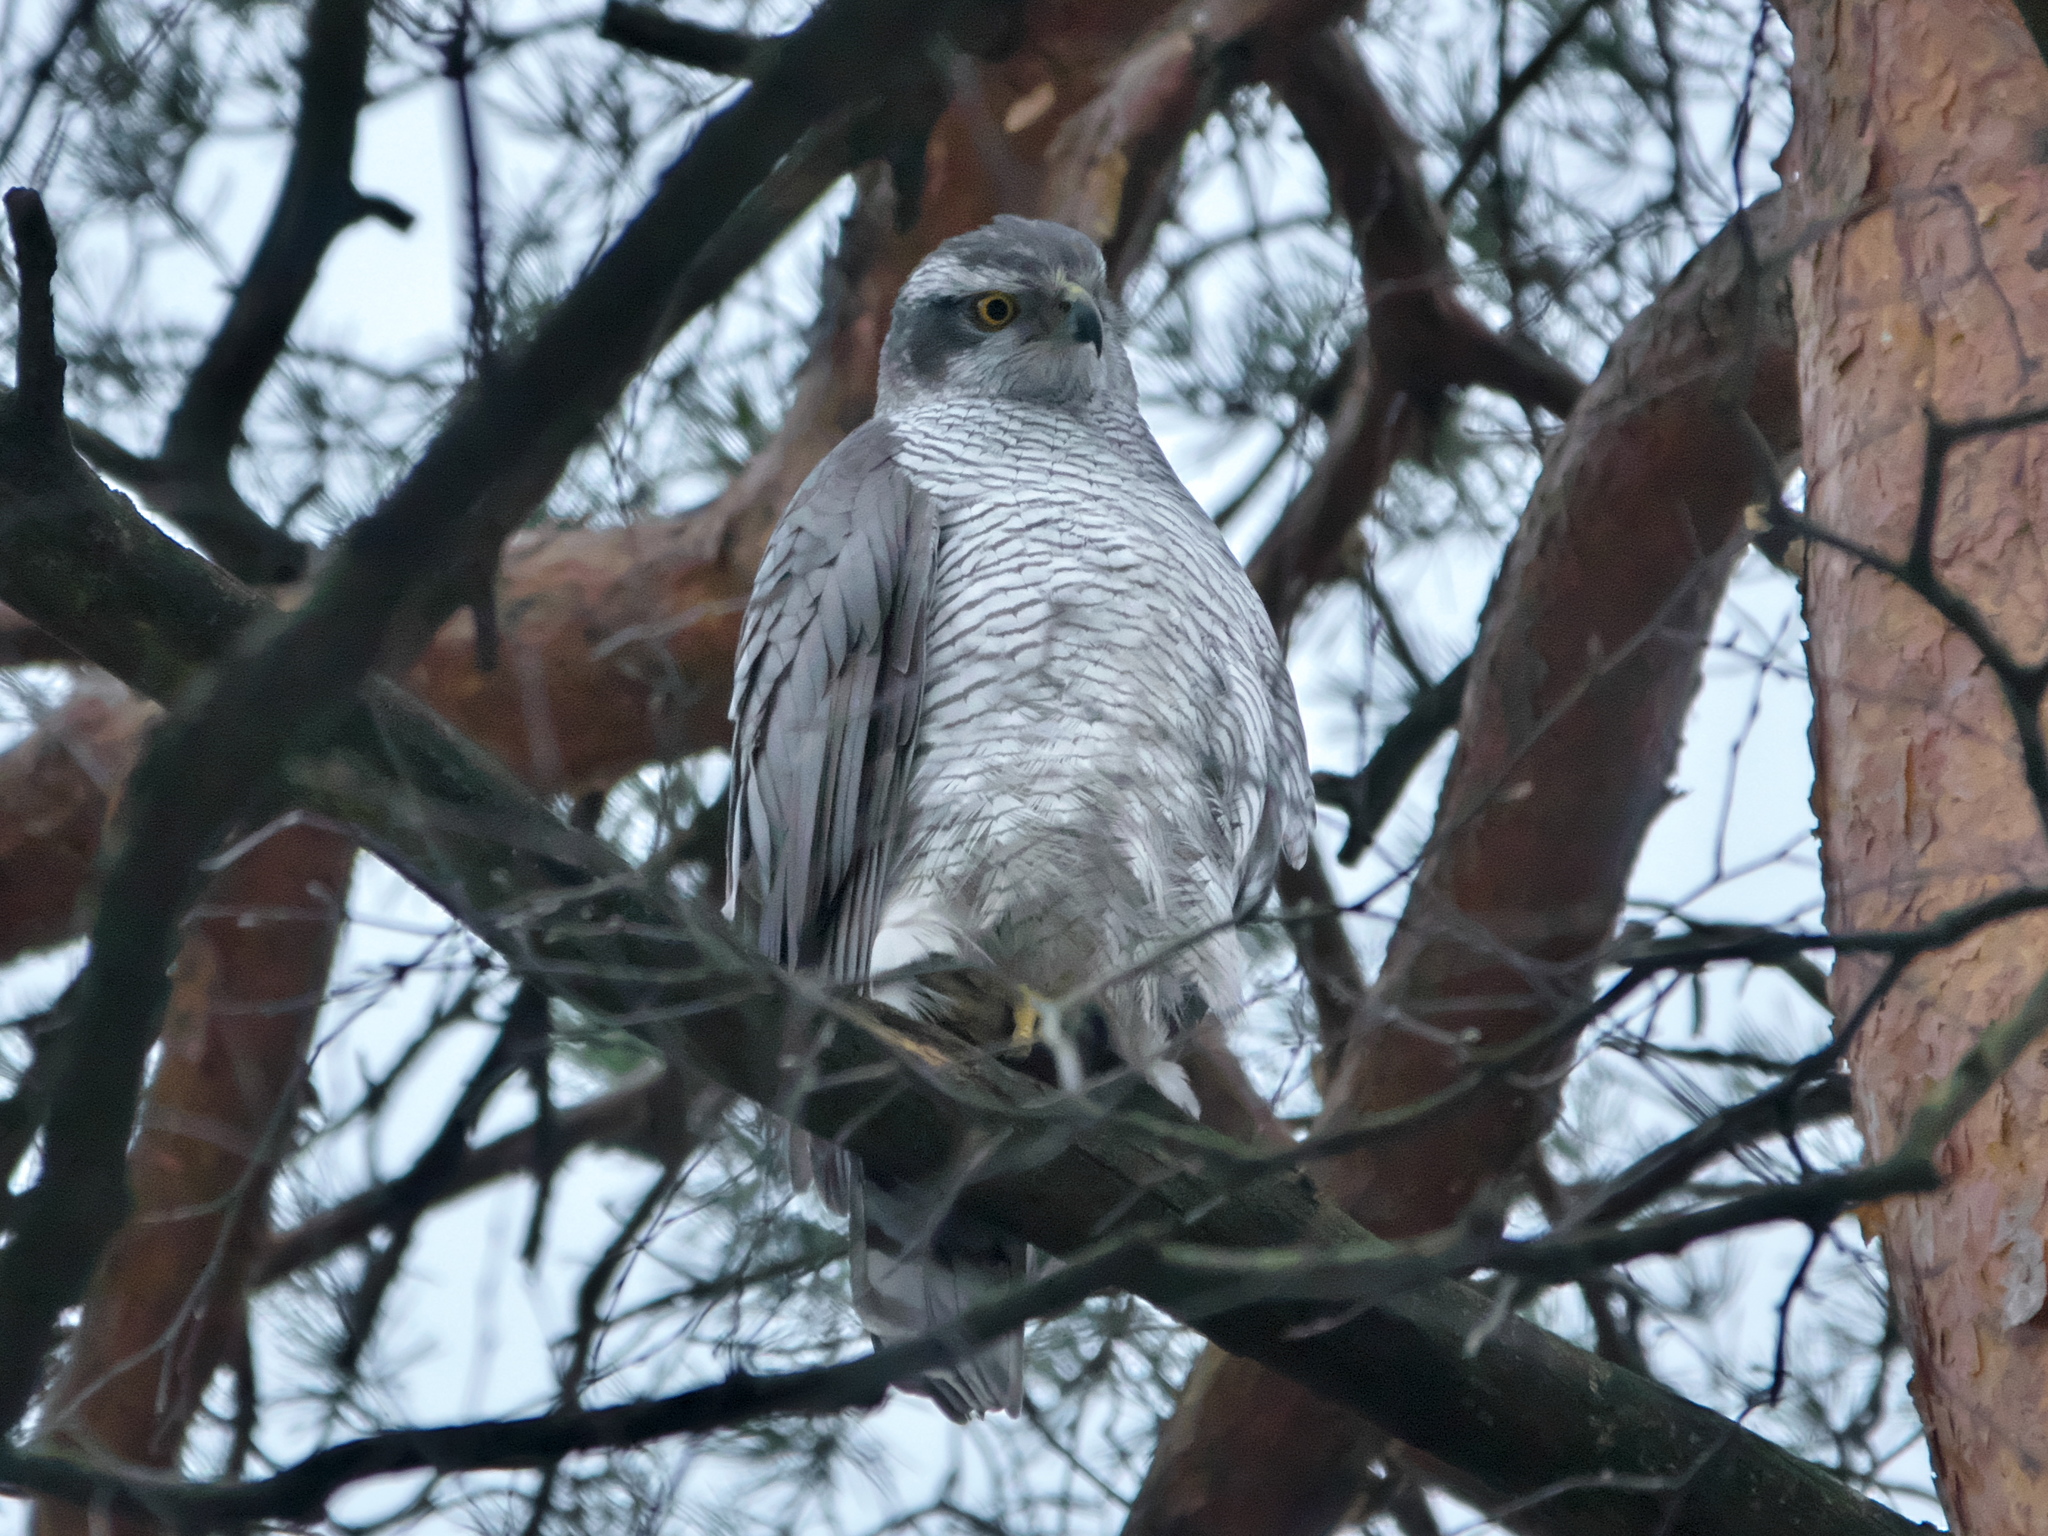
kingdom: Animalia
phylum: Chordata
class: Aves
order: Accipitriformes
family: Accipitridae
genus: Accipiter
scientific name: Accipiter gentilis
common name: Northern goshawk
